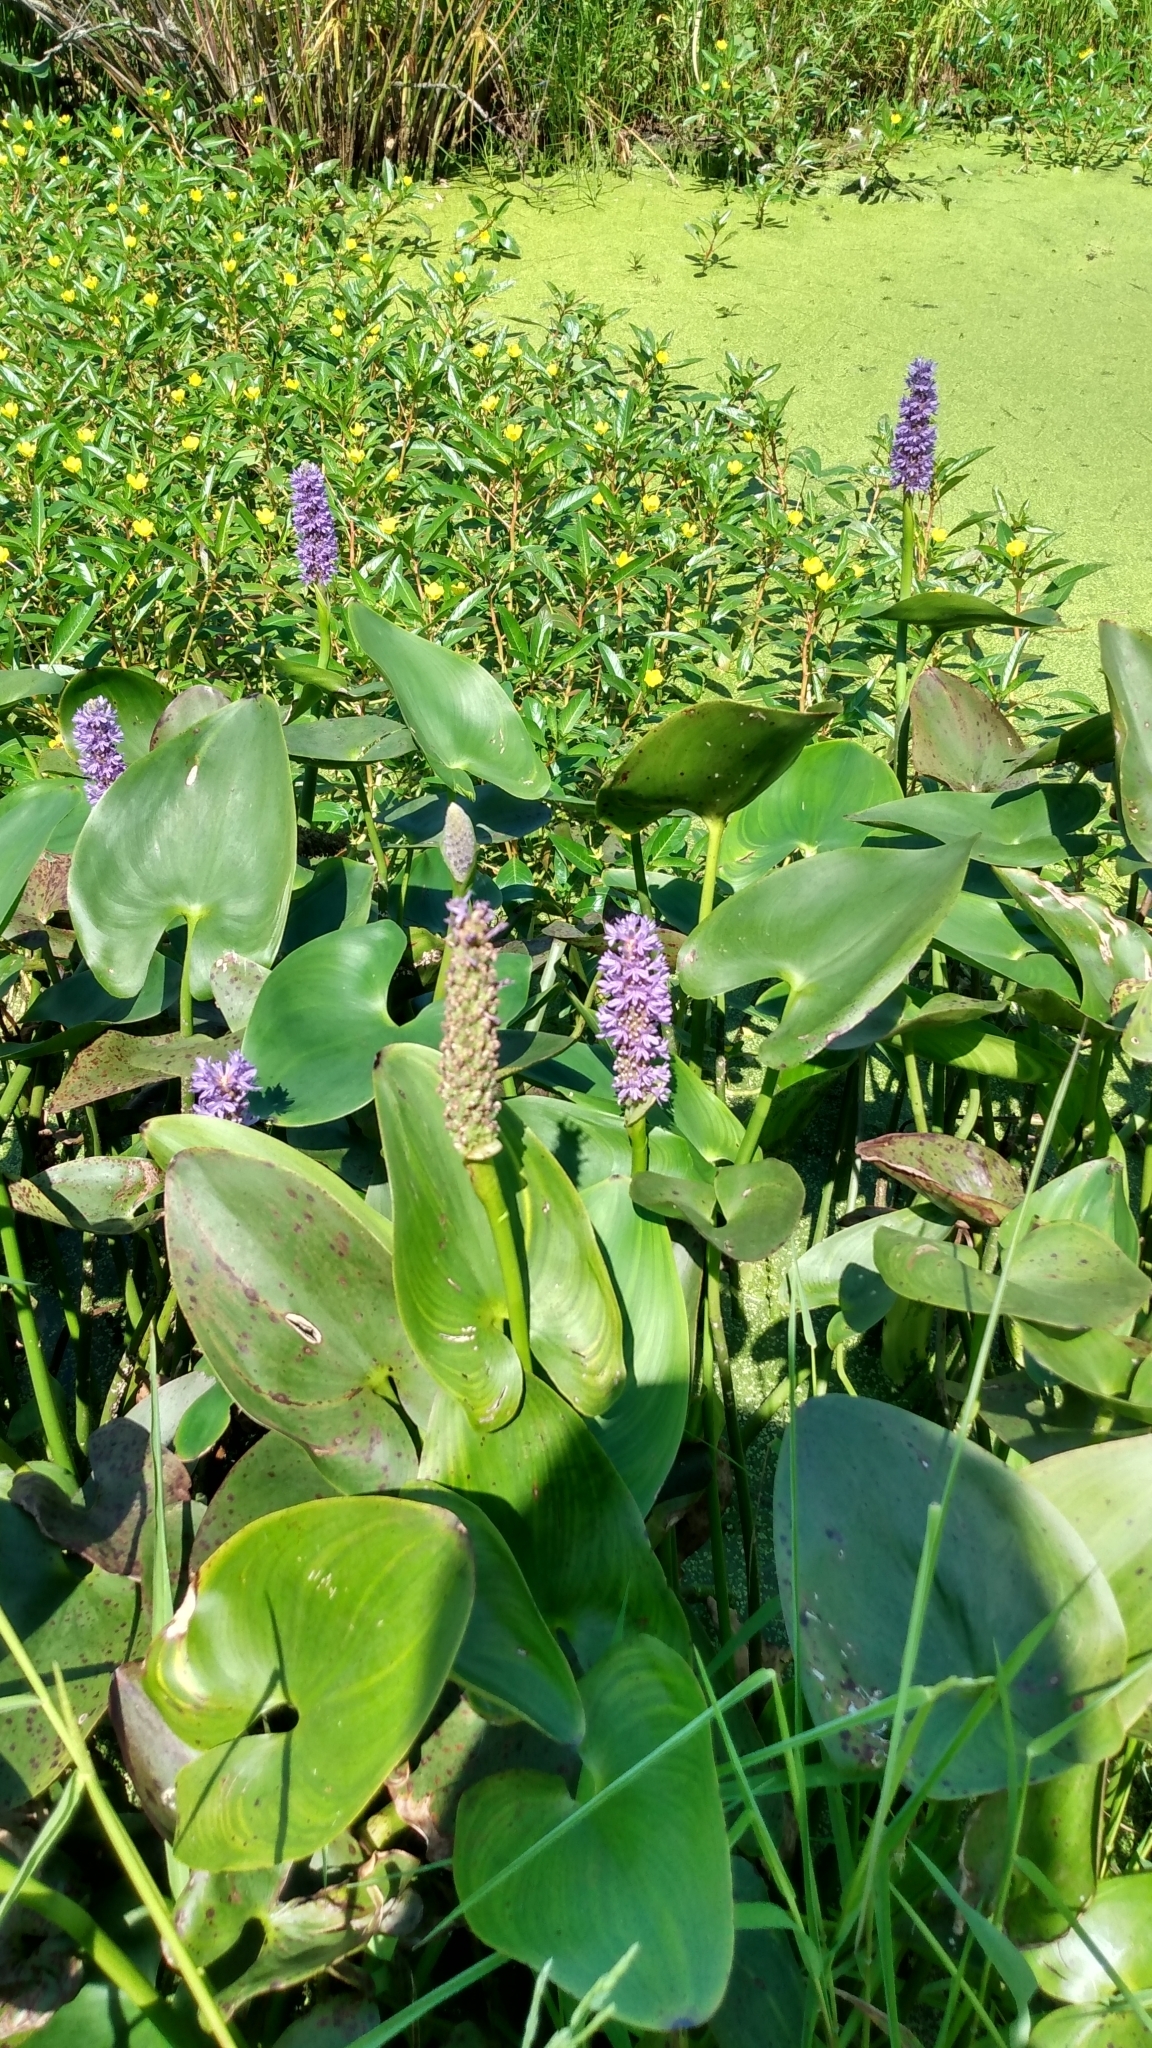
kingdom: Plantae
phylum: Tracheophyta
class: Liliopsida
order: Commelinales
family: Pontederiaceae
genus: Pontederia
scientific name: Pontederia cordata
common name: Pickerelweed
